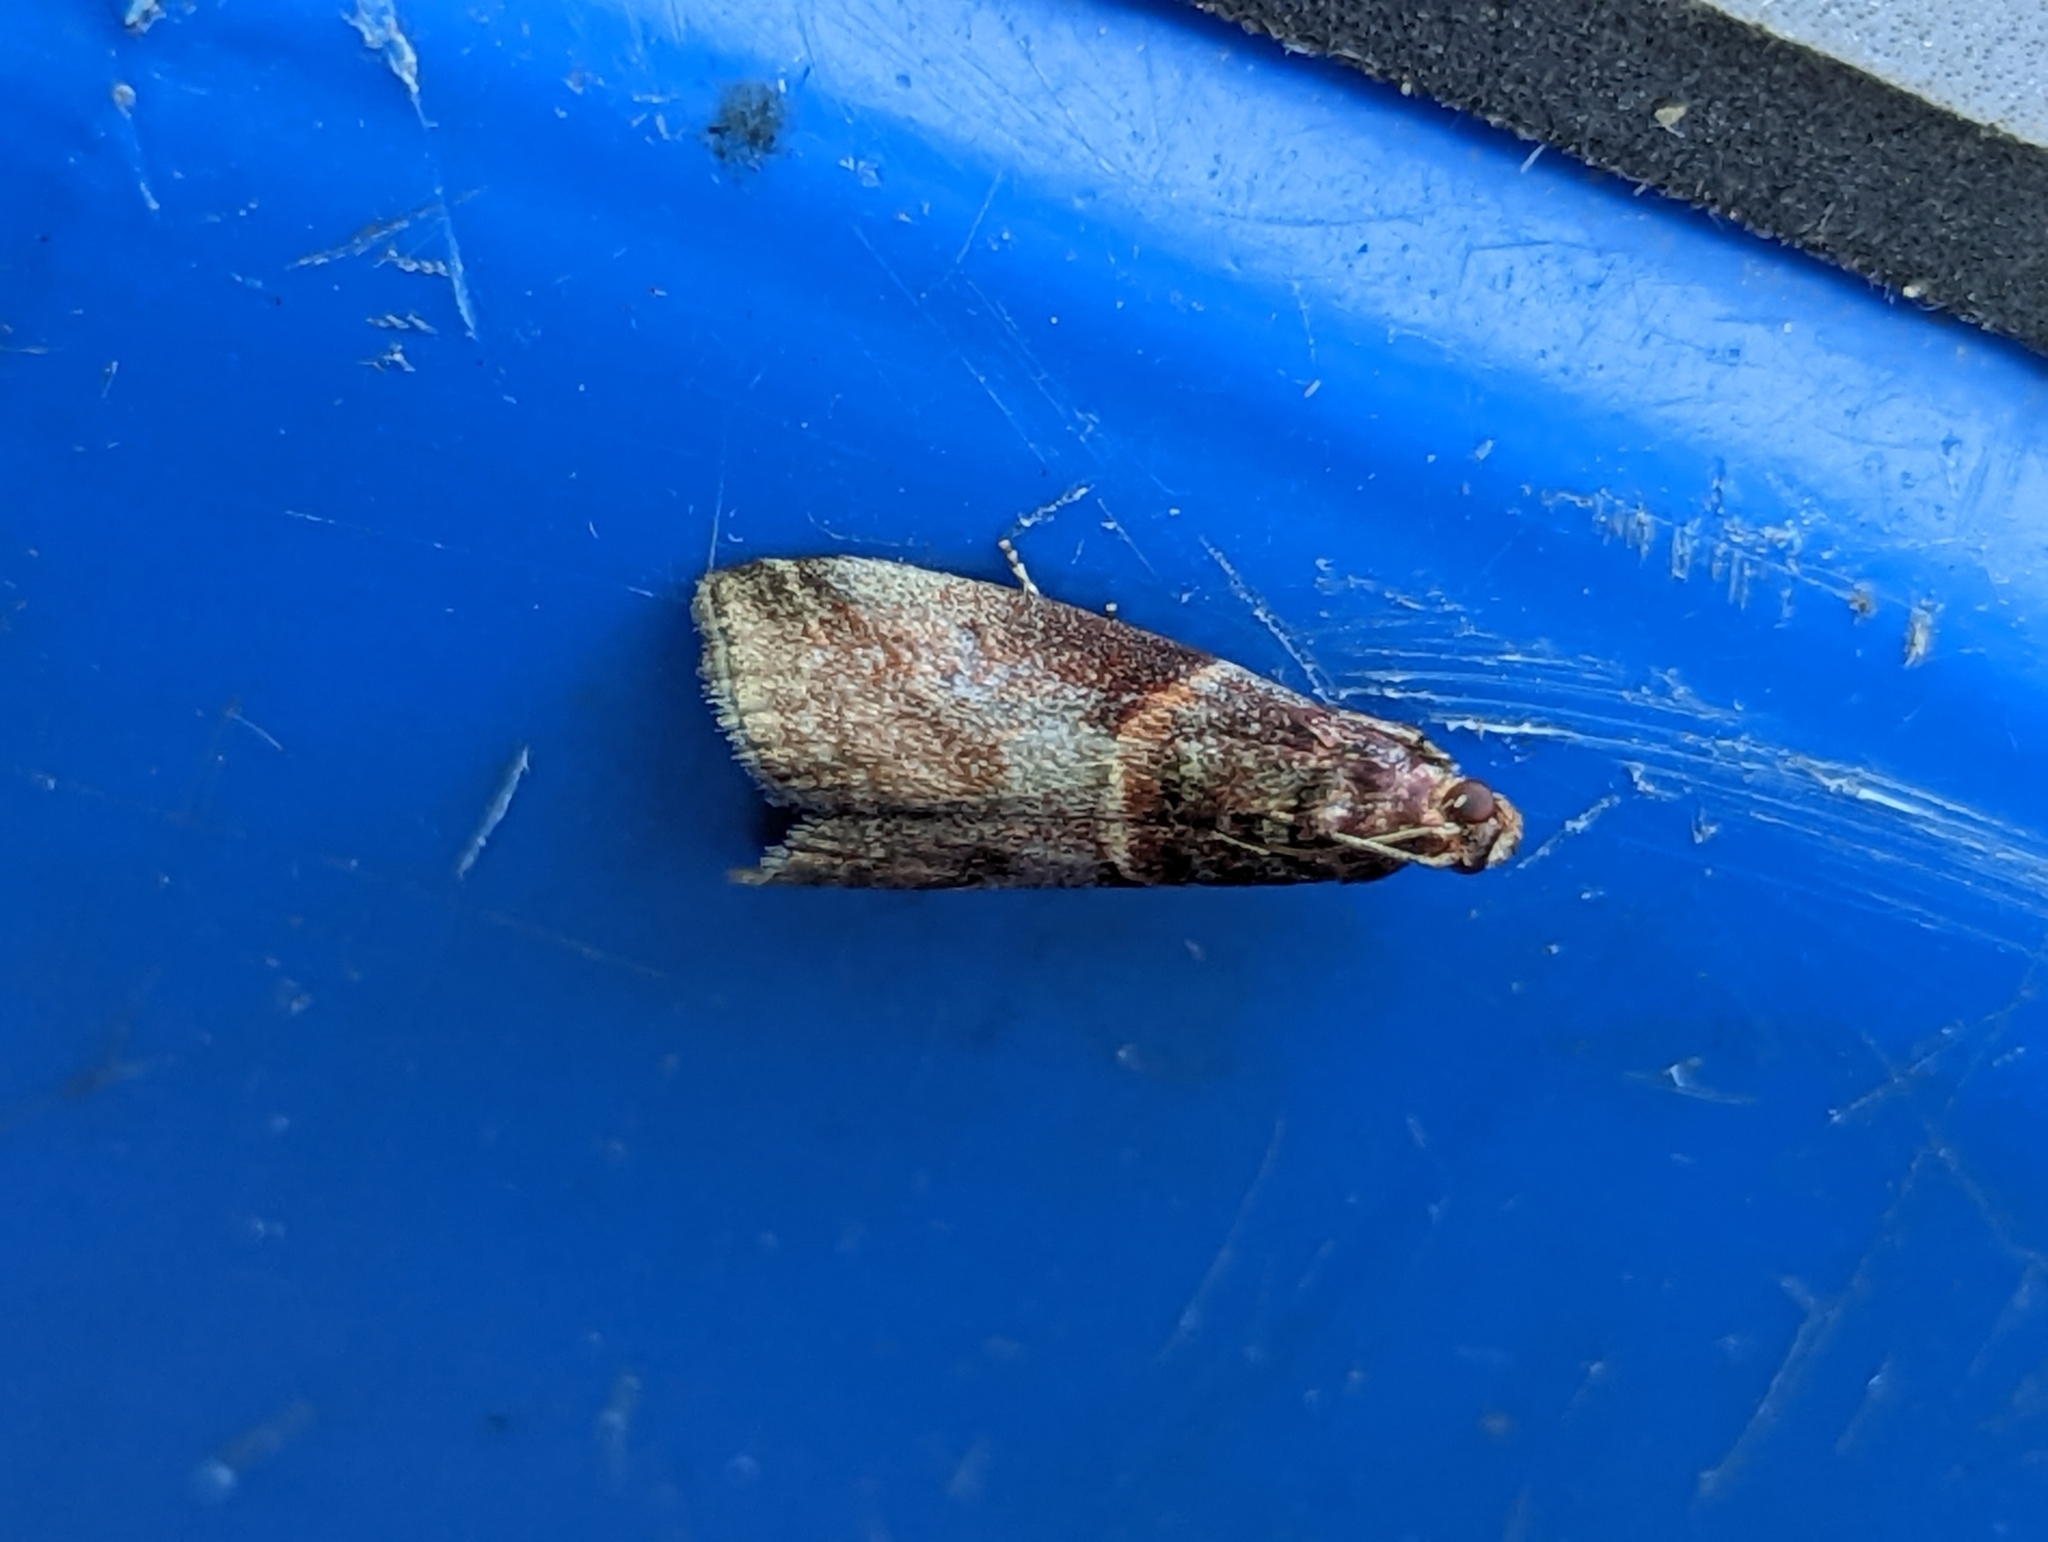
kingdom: Animalia
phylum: Arthropoda
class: Insecta
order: Lepidoptera
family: Pyralidae
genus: Acrobasis
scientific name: Acrobasis advenella
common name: Grey knot-horn
